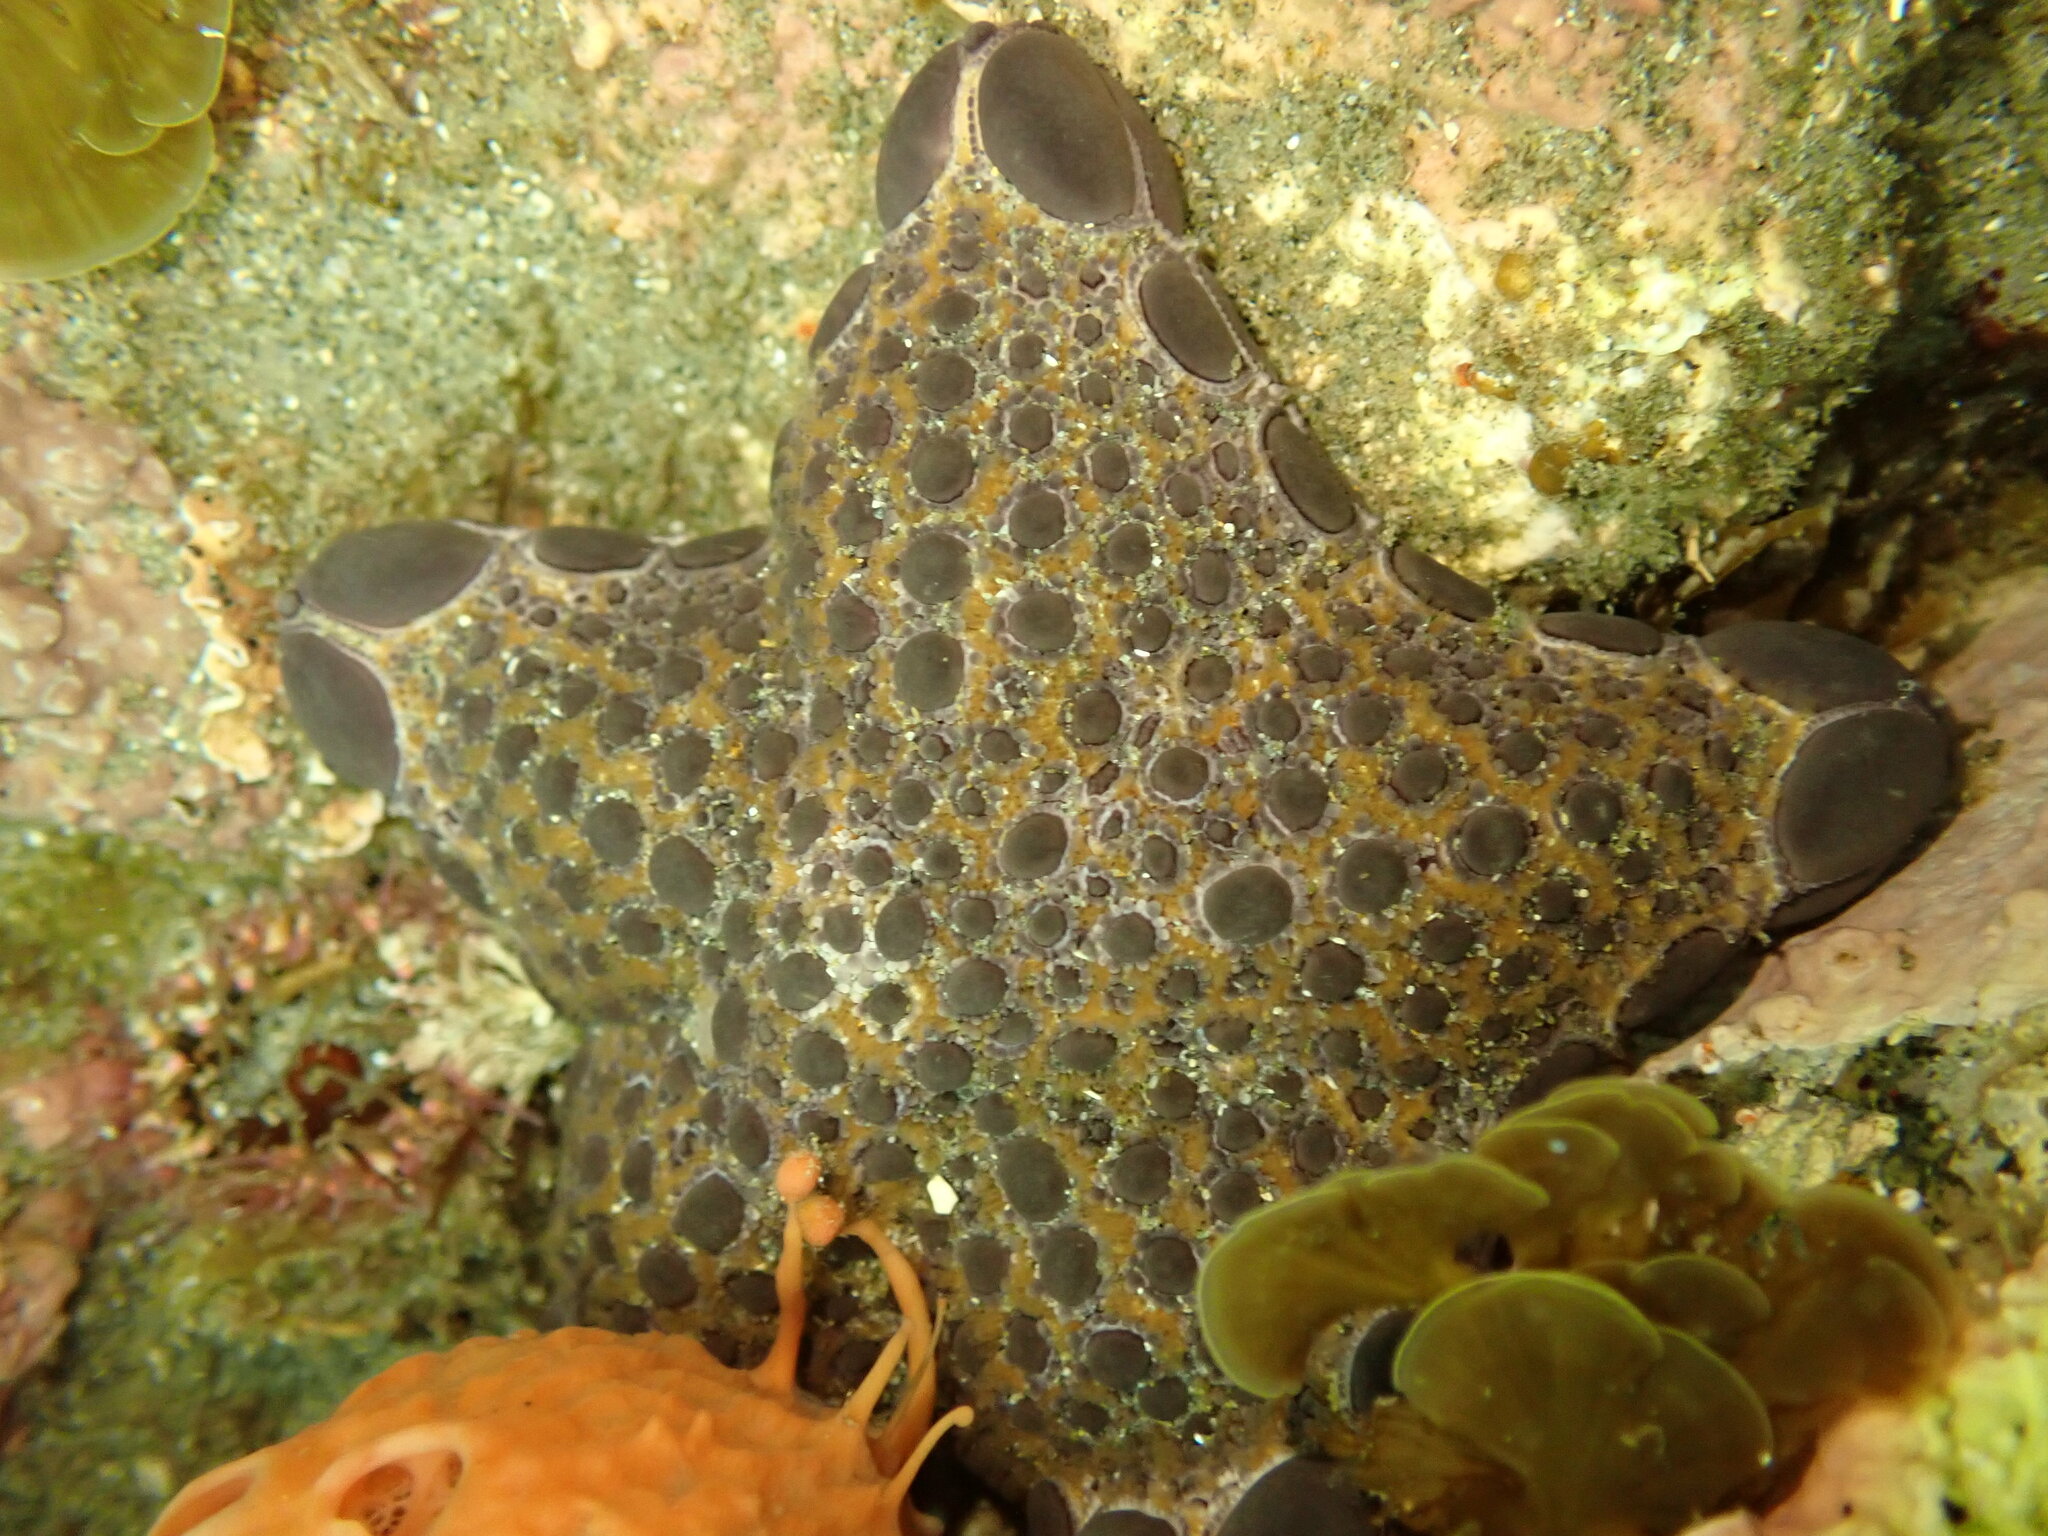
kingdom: Animalia
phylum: Echinodermata
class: Asteroidea
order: Valvatida
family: Goniasteridae
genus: Pentagonaster
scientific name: Pentagonaster pulchellus
